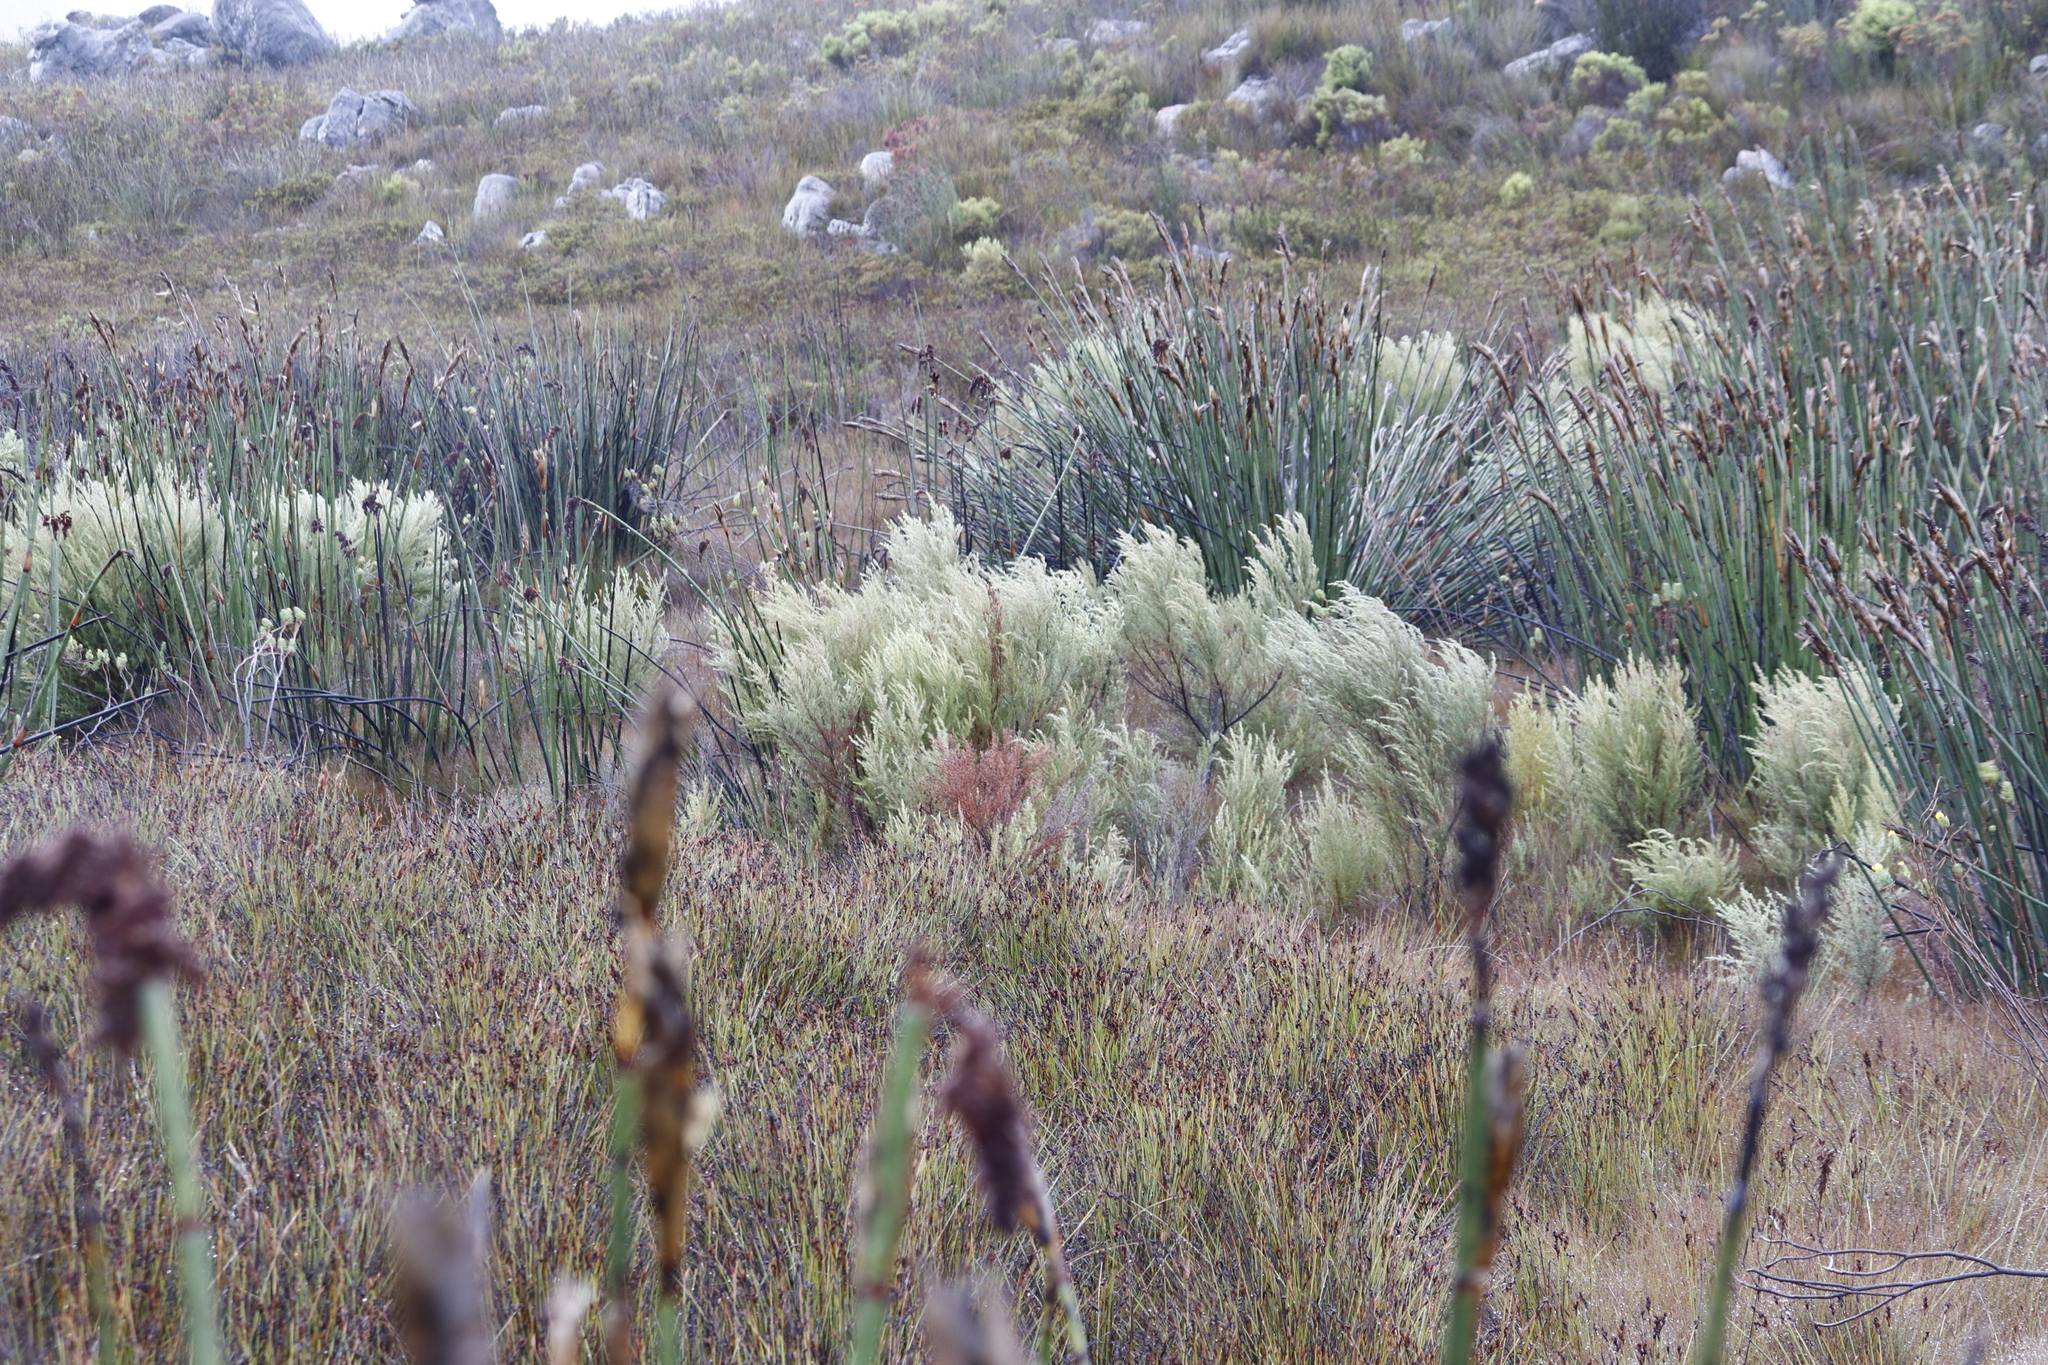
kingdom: Plantae
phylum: Tracheophyta
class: Liliopsida
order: Poales
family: Restionaceae
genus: Elegia
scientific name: Elegia mucronata
